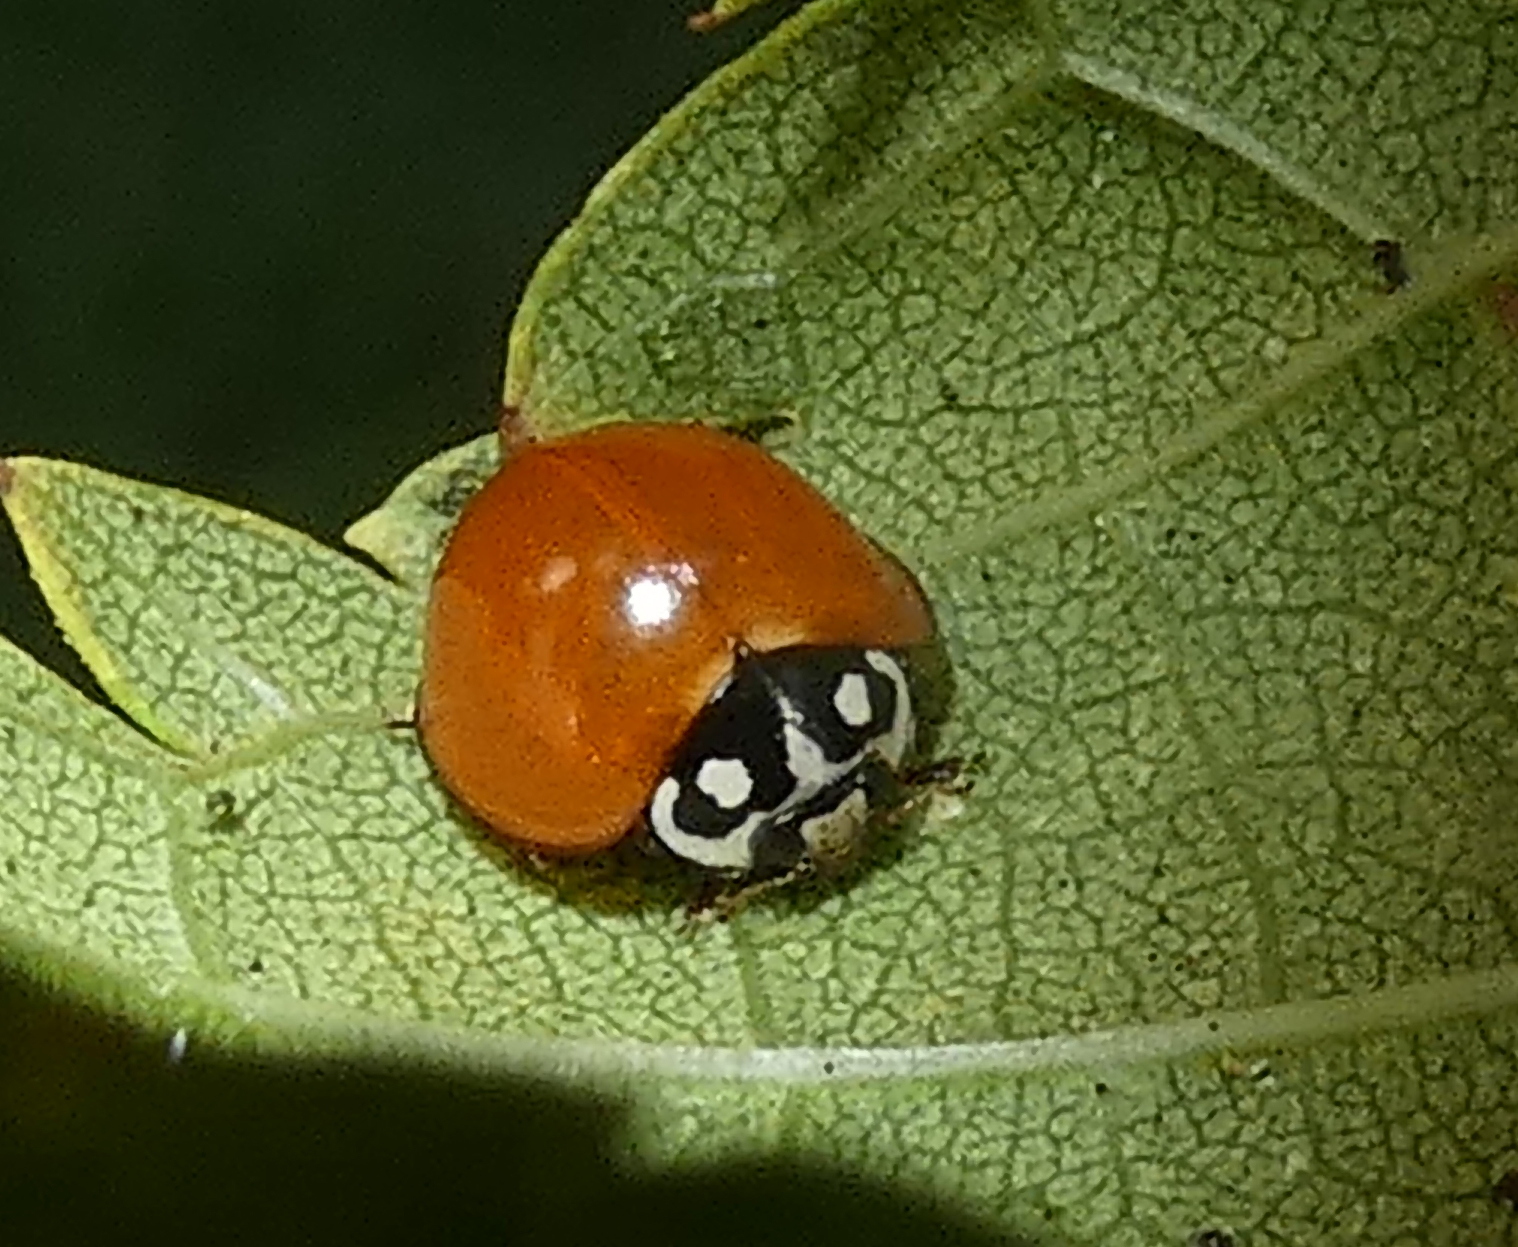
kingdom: Animalia
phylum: Arthropoda
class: Insecta
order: Coleoptera
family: Coccinellidae
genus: Cycloneda
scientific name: Cycloneda sanguinea
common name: Ladybird beetle
